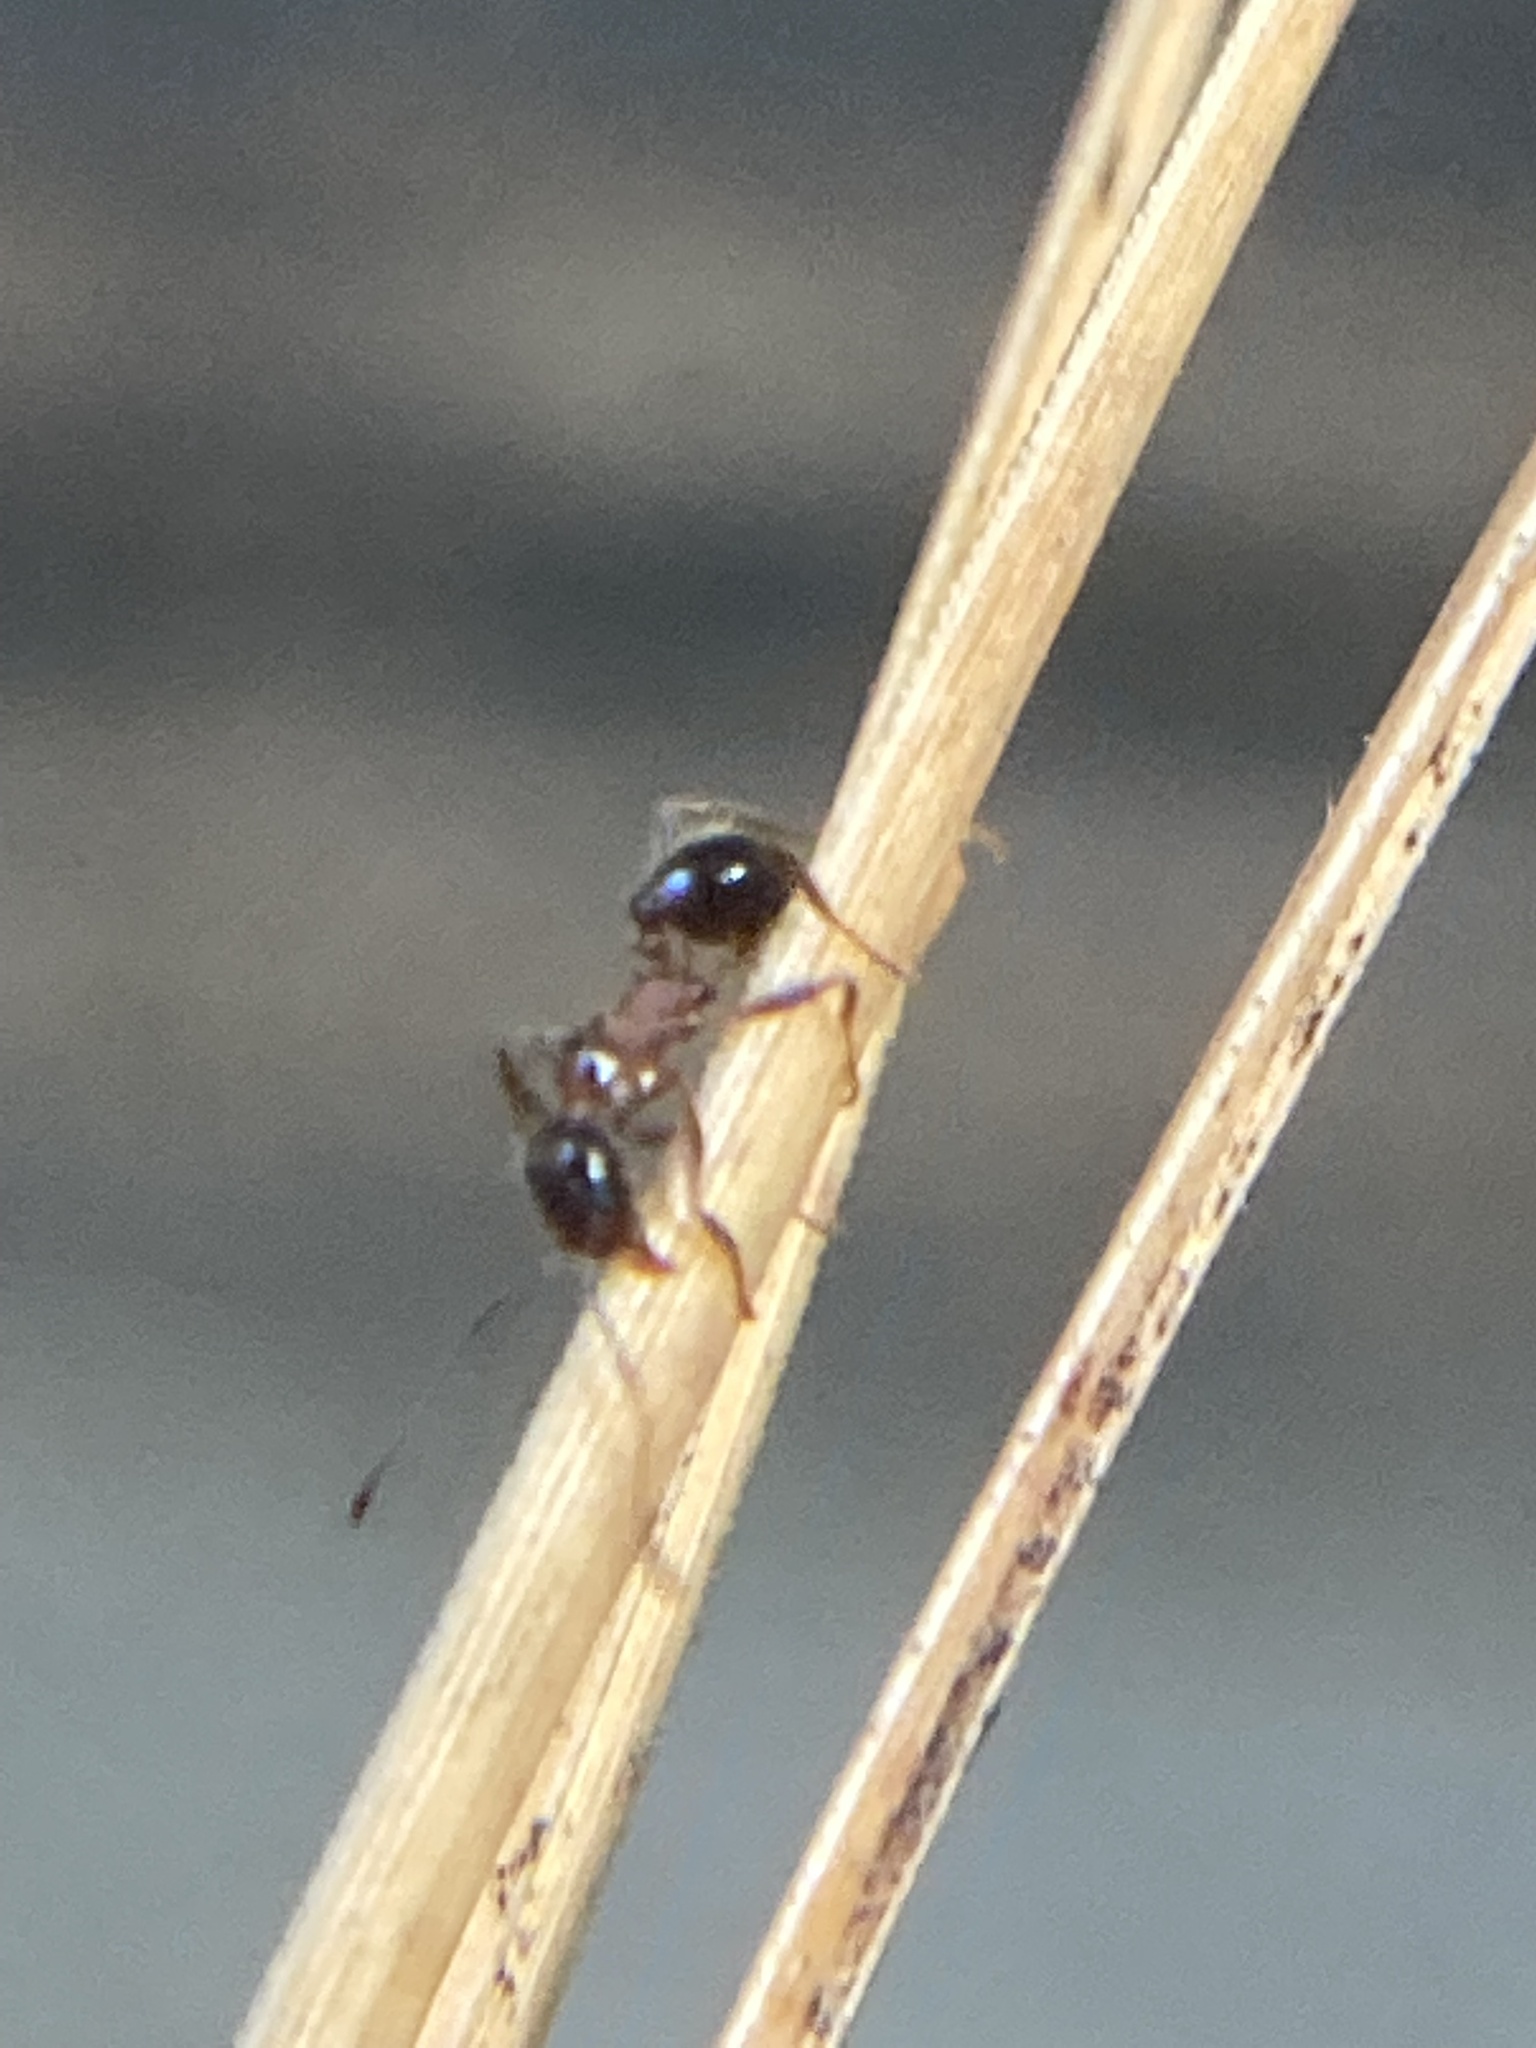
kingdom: Animalia
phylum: Arthropoda
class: Insecta
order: Hymenoptera
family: Formicidae
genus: Pheidole
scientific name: Pheidole dentata
